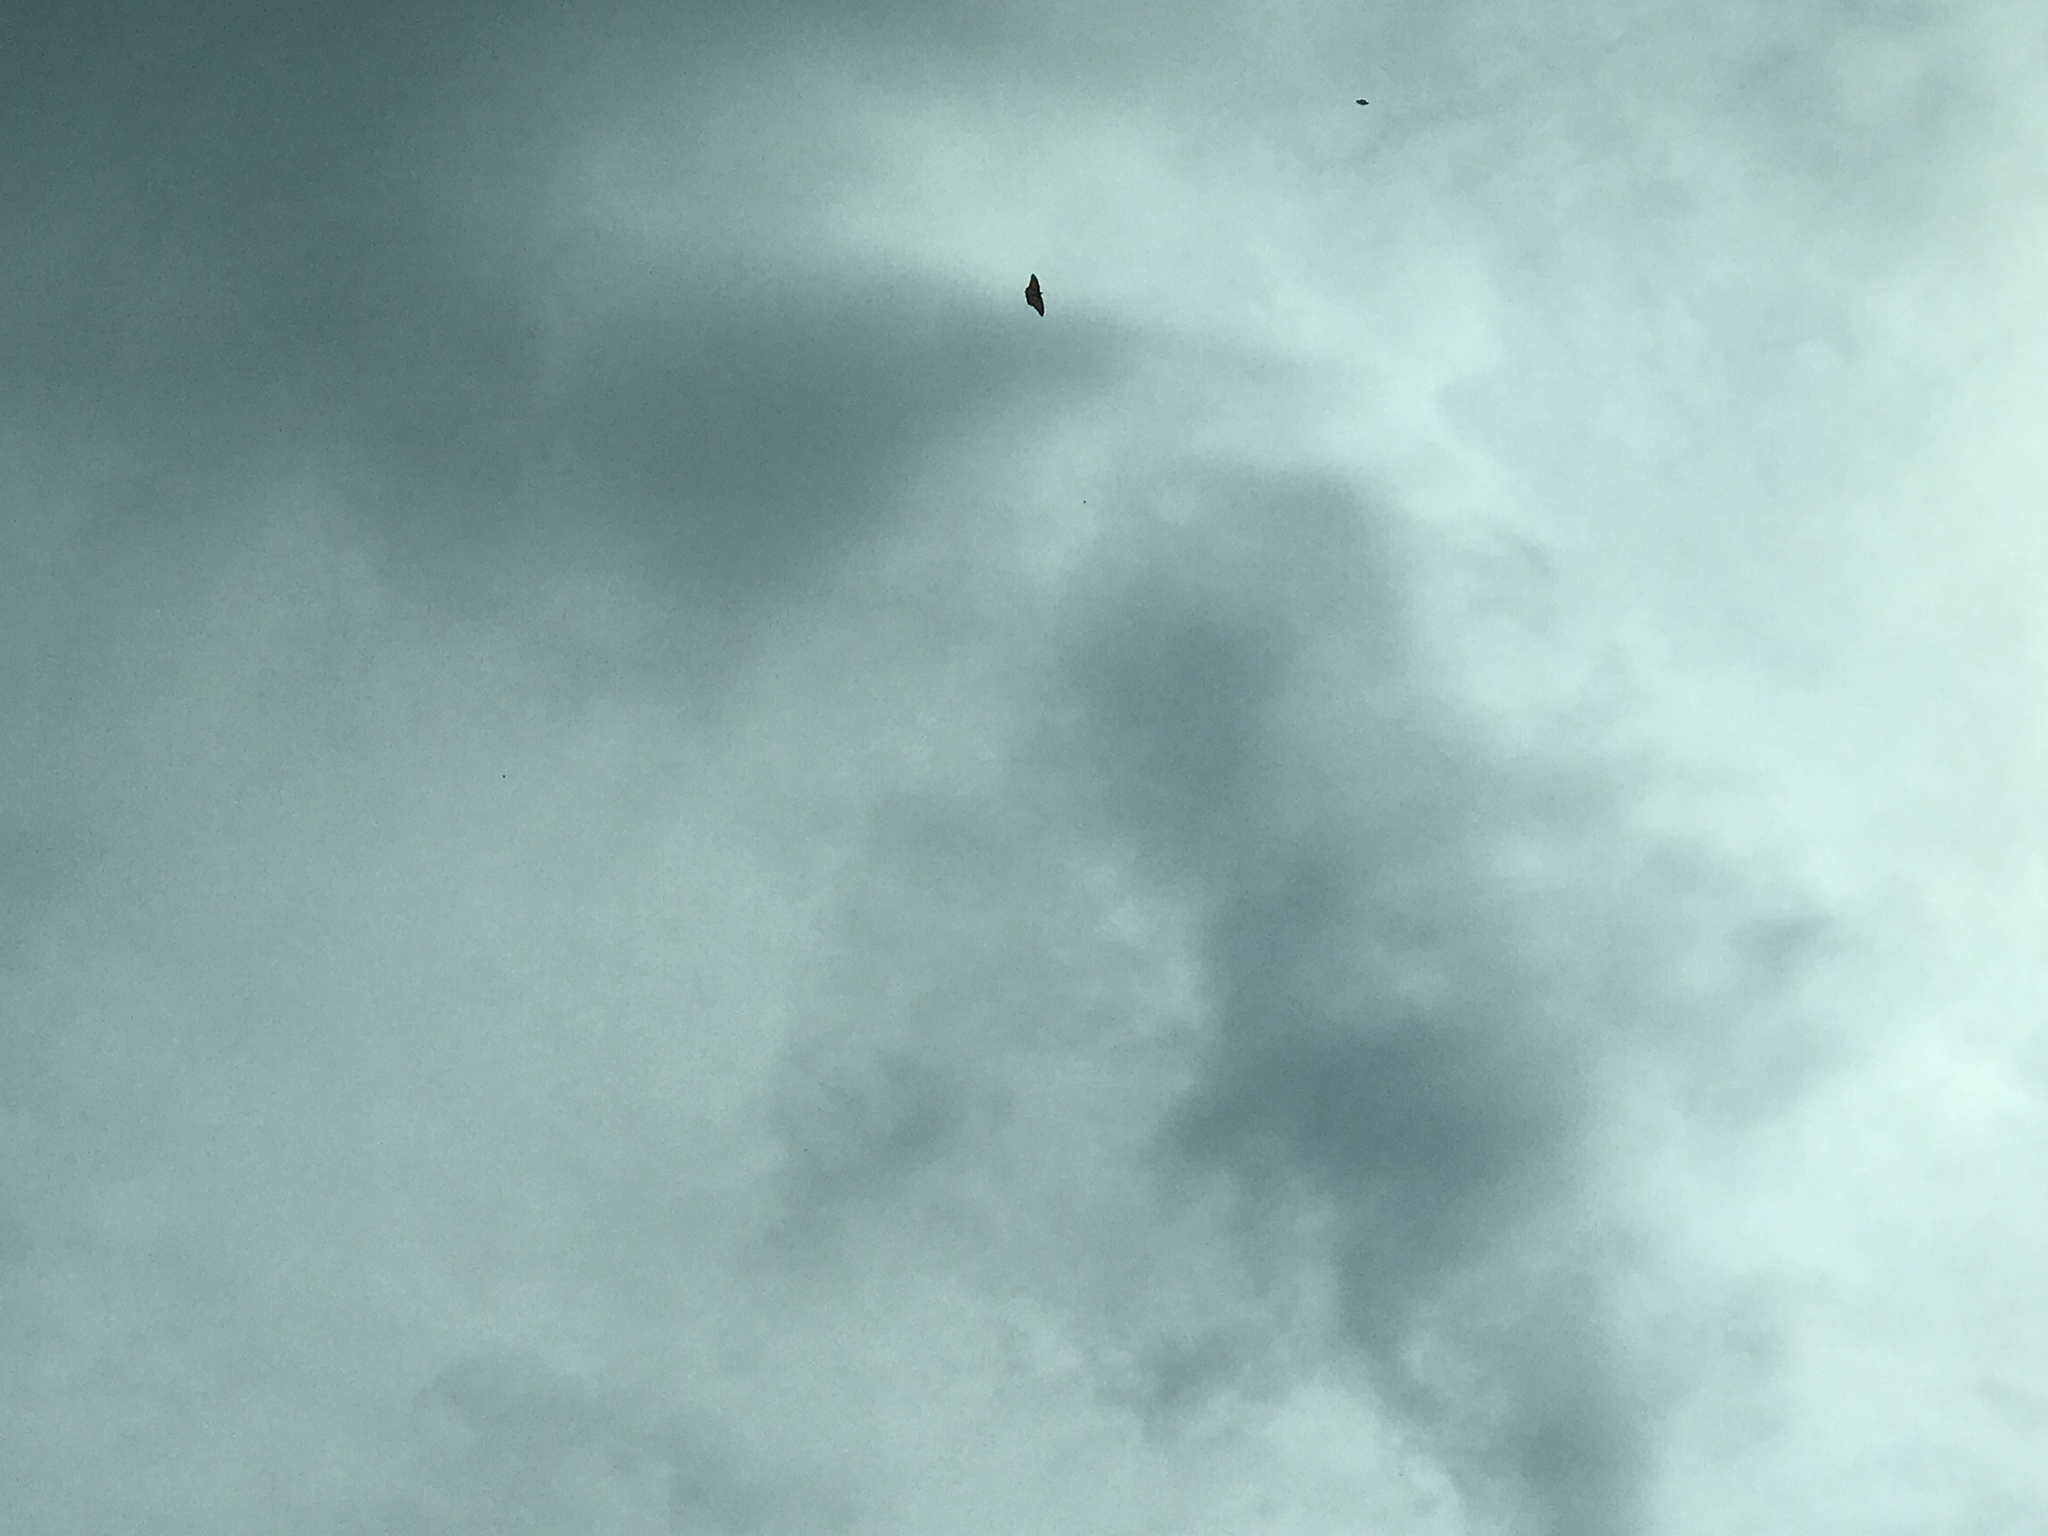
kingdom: Animalia
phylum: Arthropoda
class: Insecta
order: Lepidoptera
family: Nymphalidae
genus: Danaus
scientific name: Danaus plexippus
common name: Monarch
